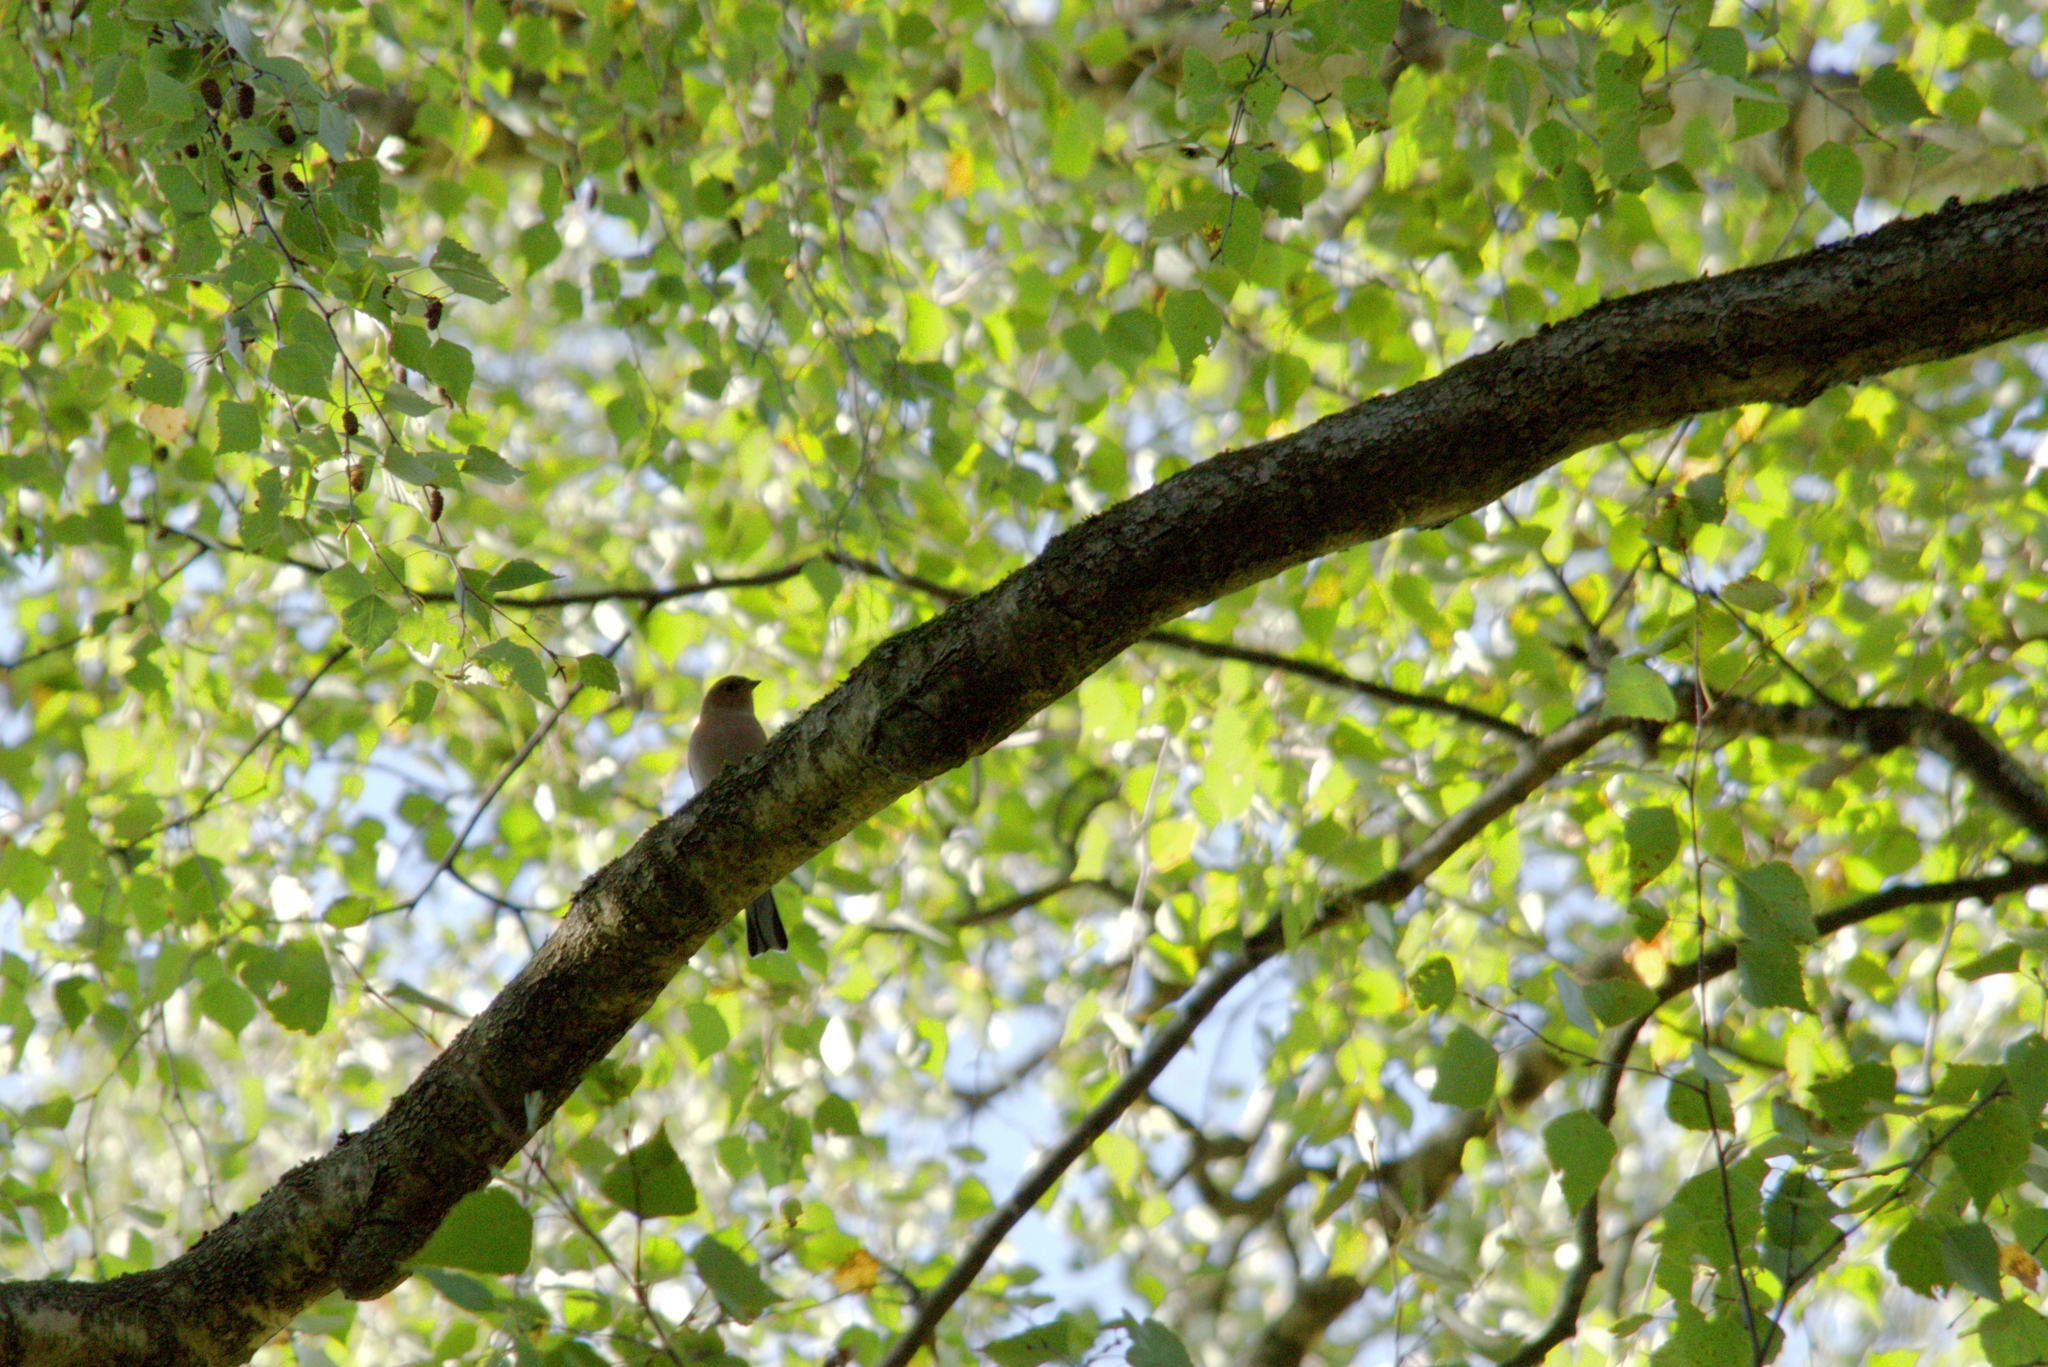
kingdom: Animalia
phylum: Chordata
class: Aves
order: Passeriformes
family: Fringillidae
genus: Fringilla
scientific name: Fringilla coelebs
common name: Common chaffinch
